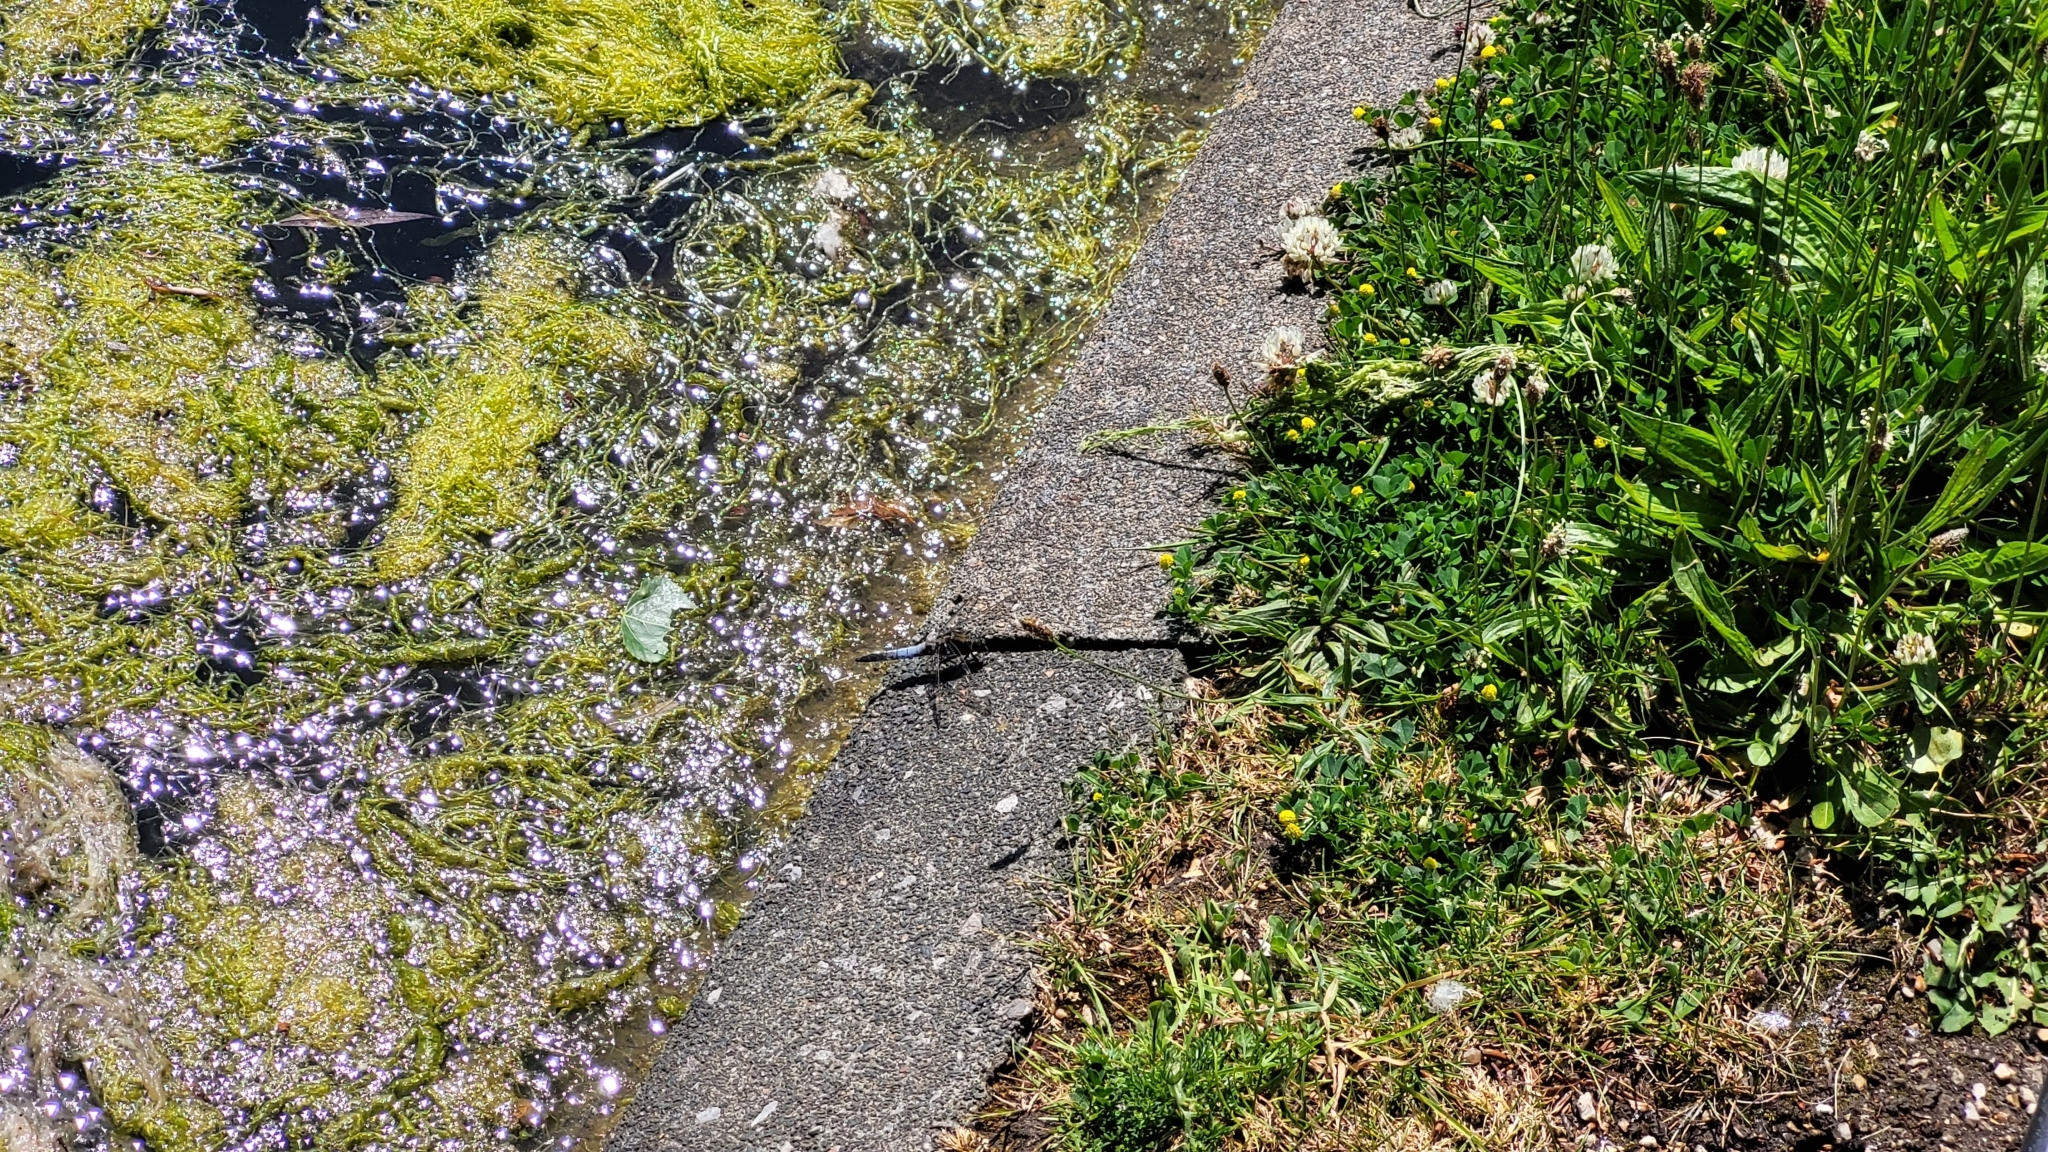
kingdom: Animalia
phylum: Arthropoda
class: Insecta
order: Odonata
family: Libellulidae
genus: Orthetrum
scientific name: Orthetrum cancellatum
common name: Black-tailed skimmer
